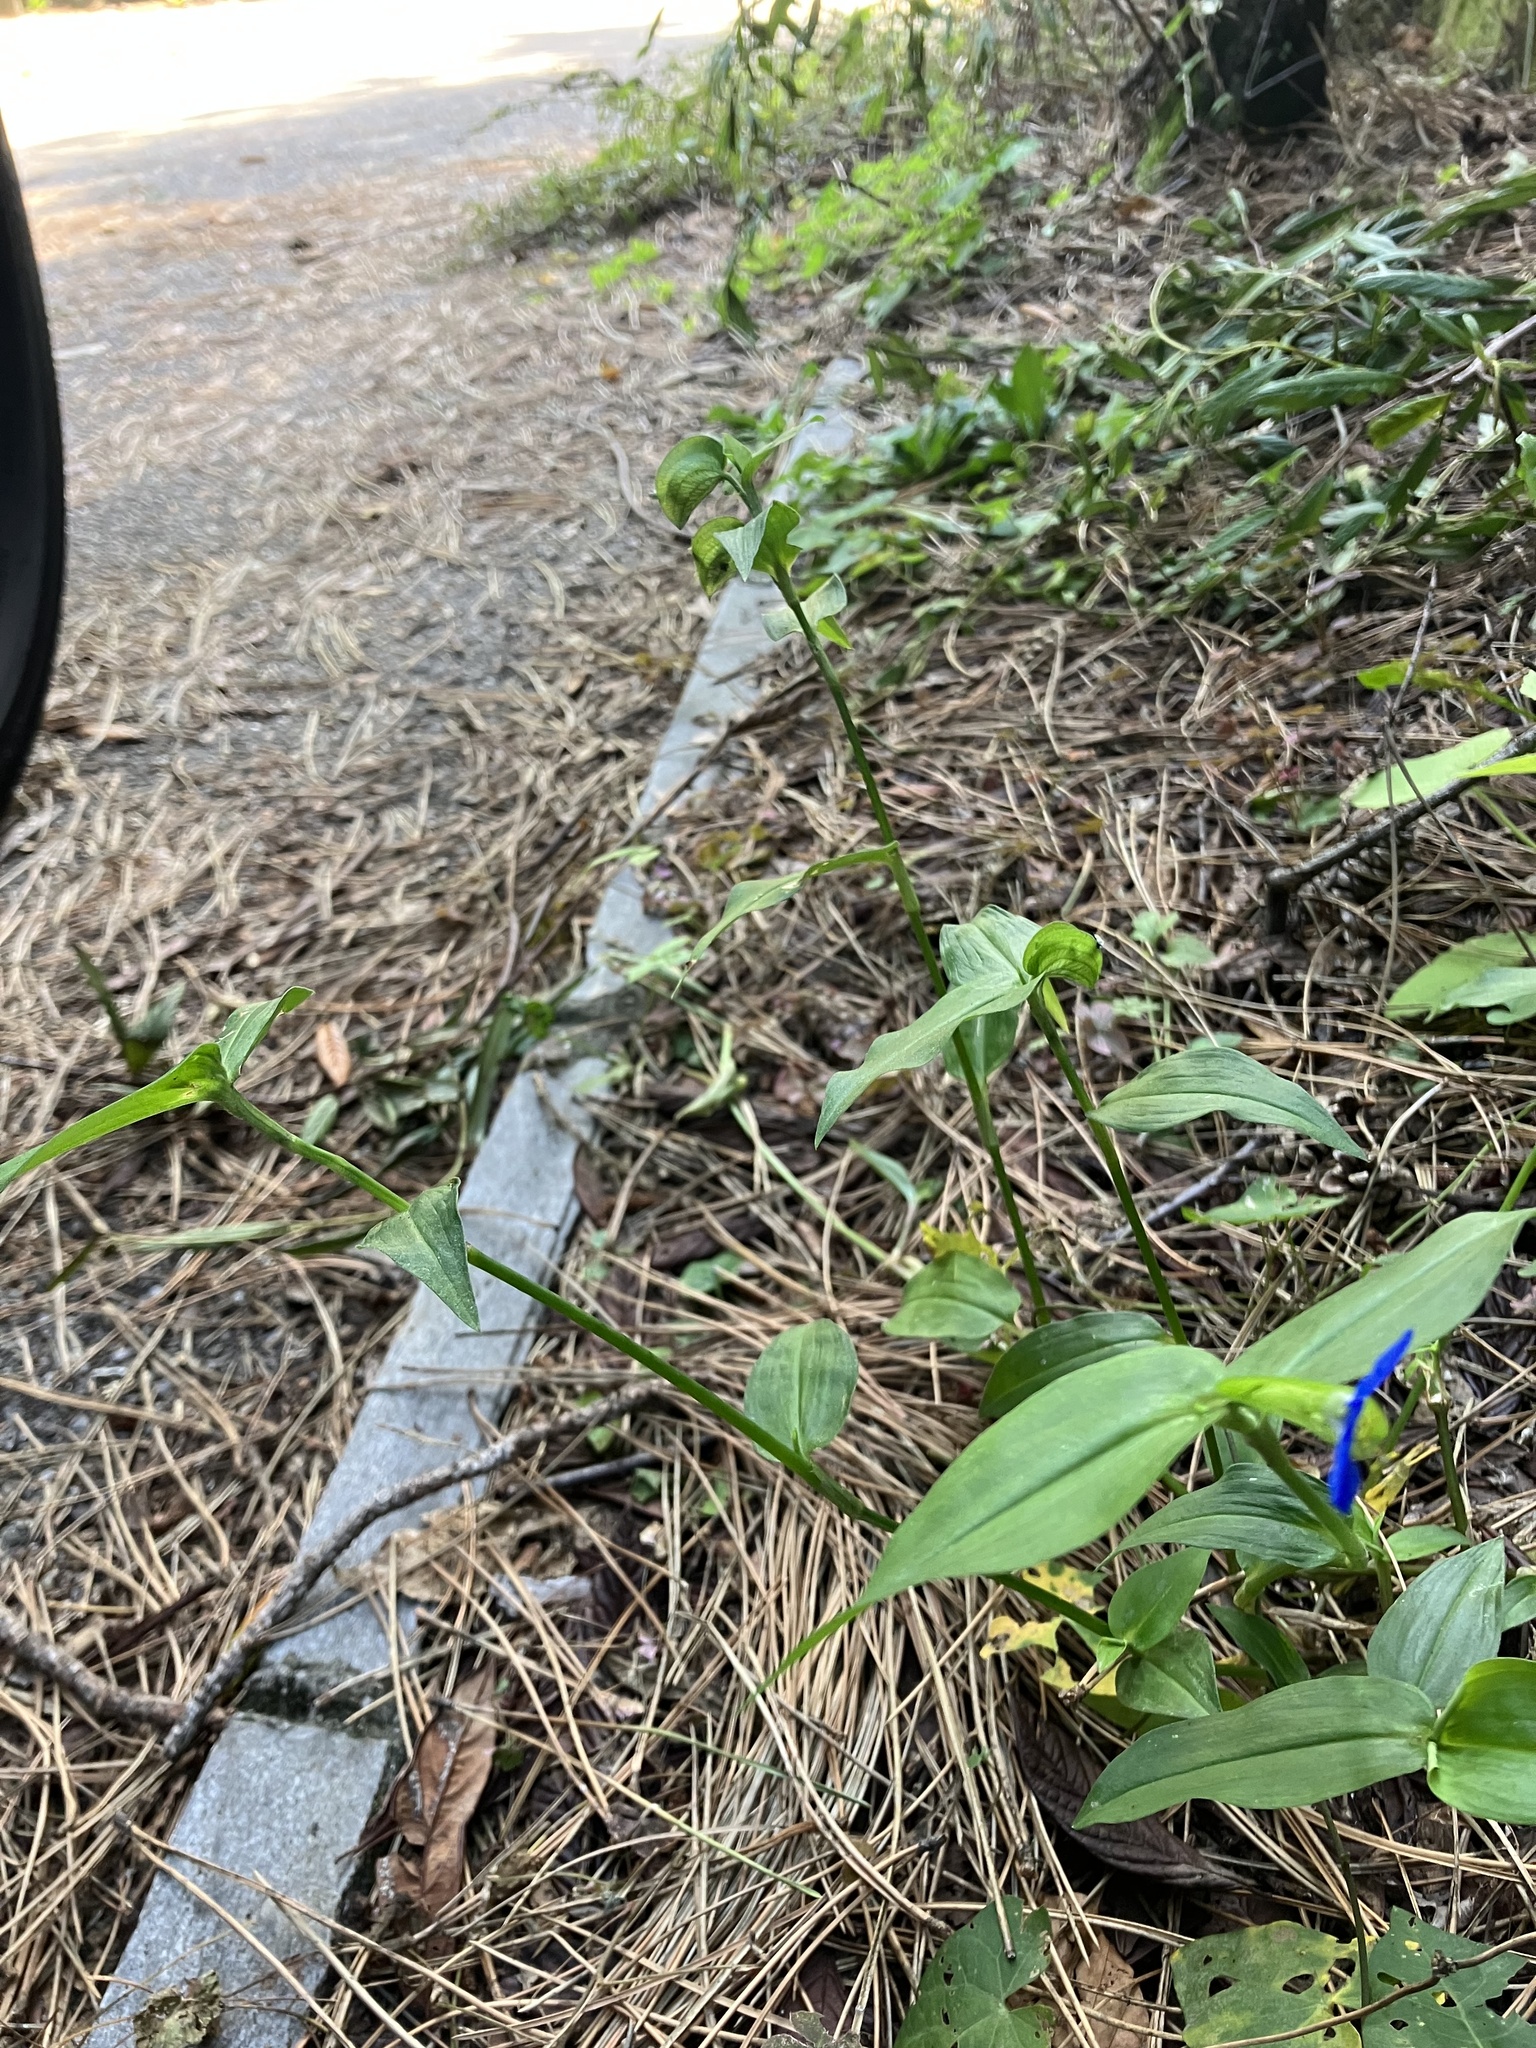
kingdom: Plantae
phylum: Tracheophyta
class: Liliopsida
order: Commelinales
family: Commelinaceae
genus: Commelina
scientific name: Commelina communis
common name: Asiatic dayflower
